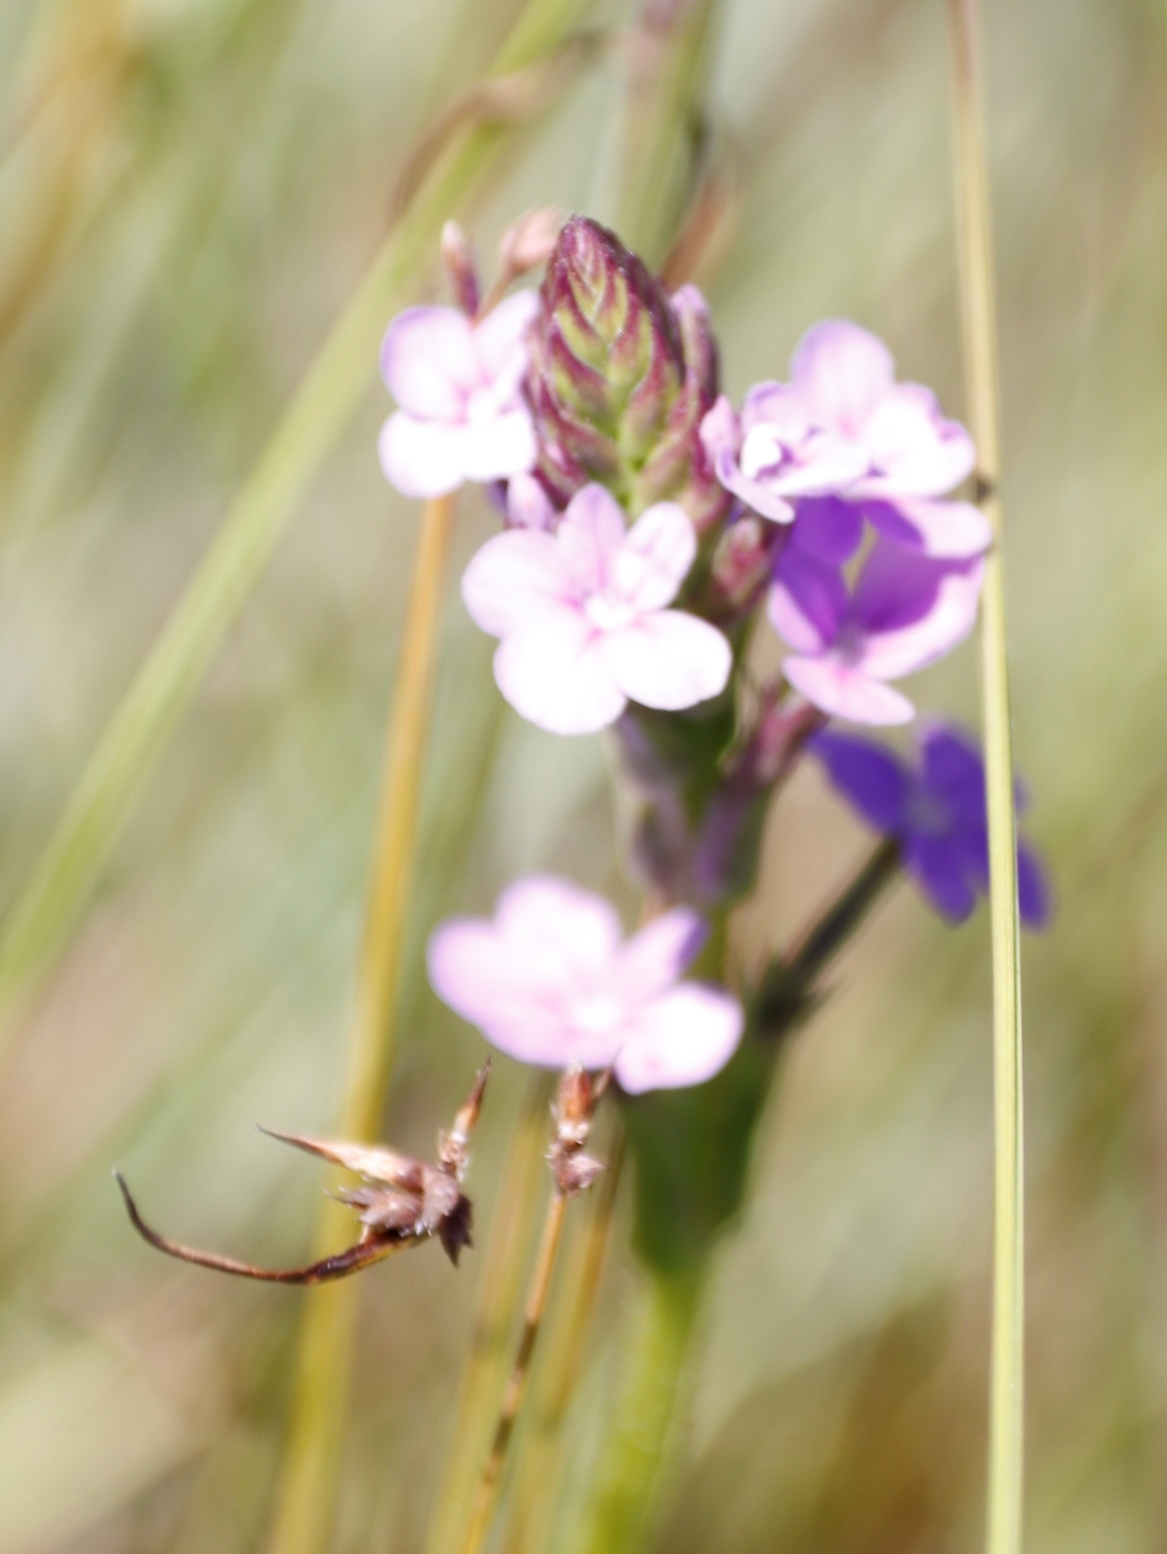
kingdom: Plantae
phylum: Tracheophyta
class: Magnoliopsida
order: Lamiales
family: Orobanchaceae
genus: Buchnera
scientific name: Buchnera simplex
